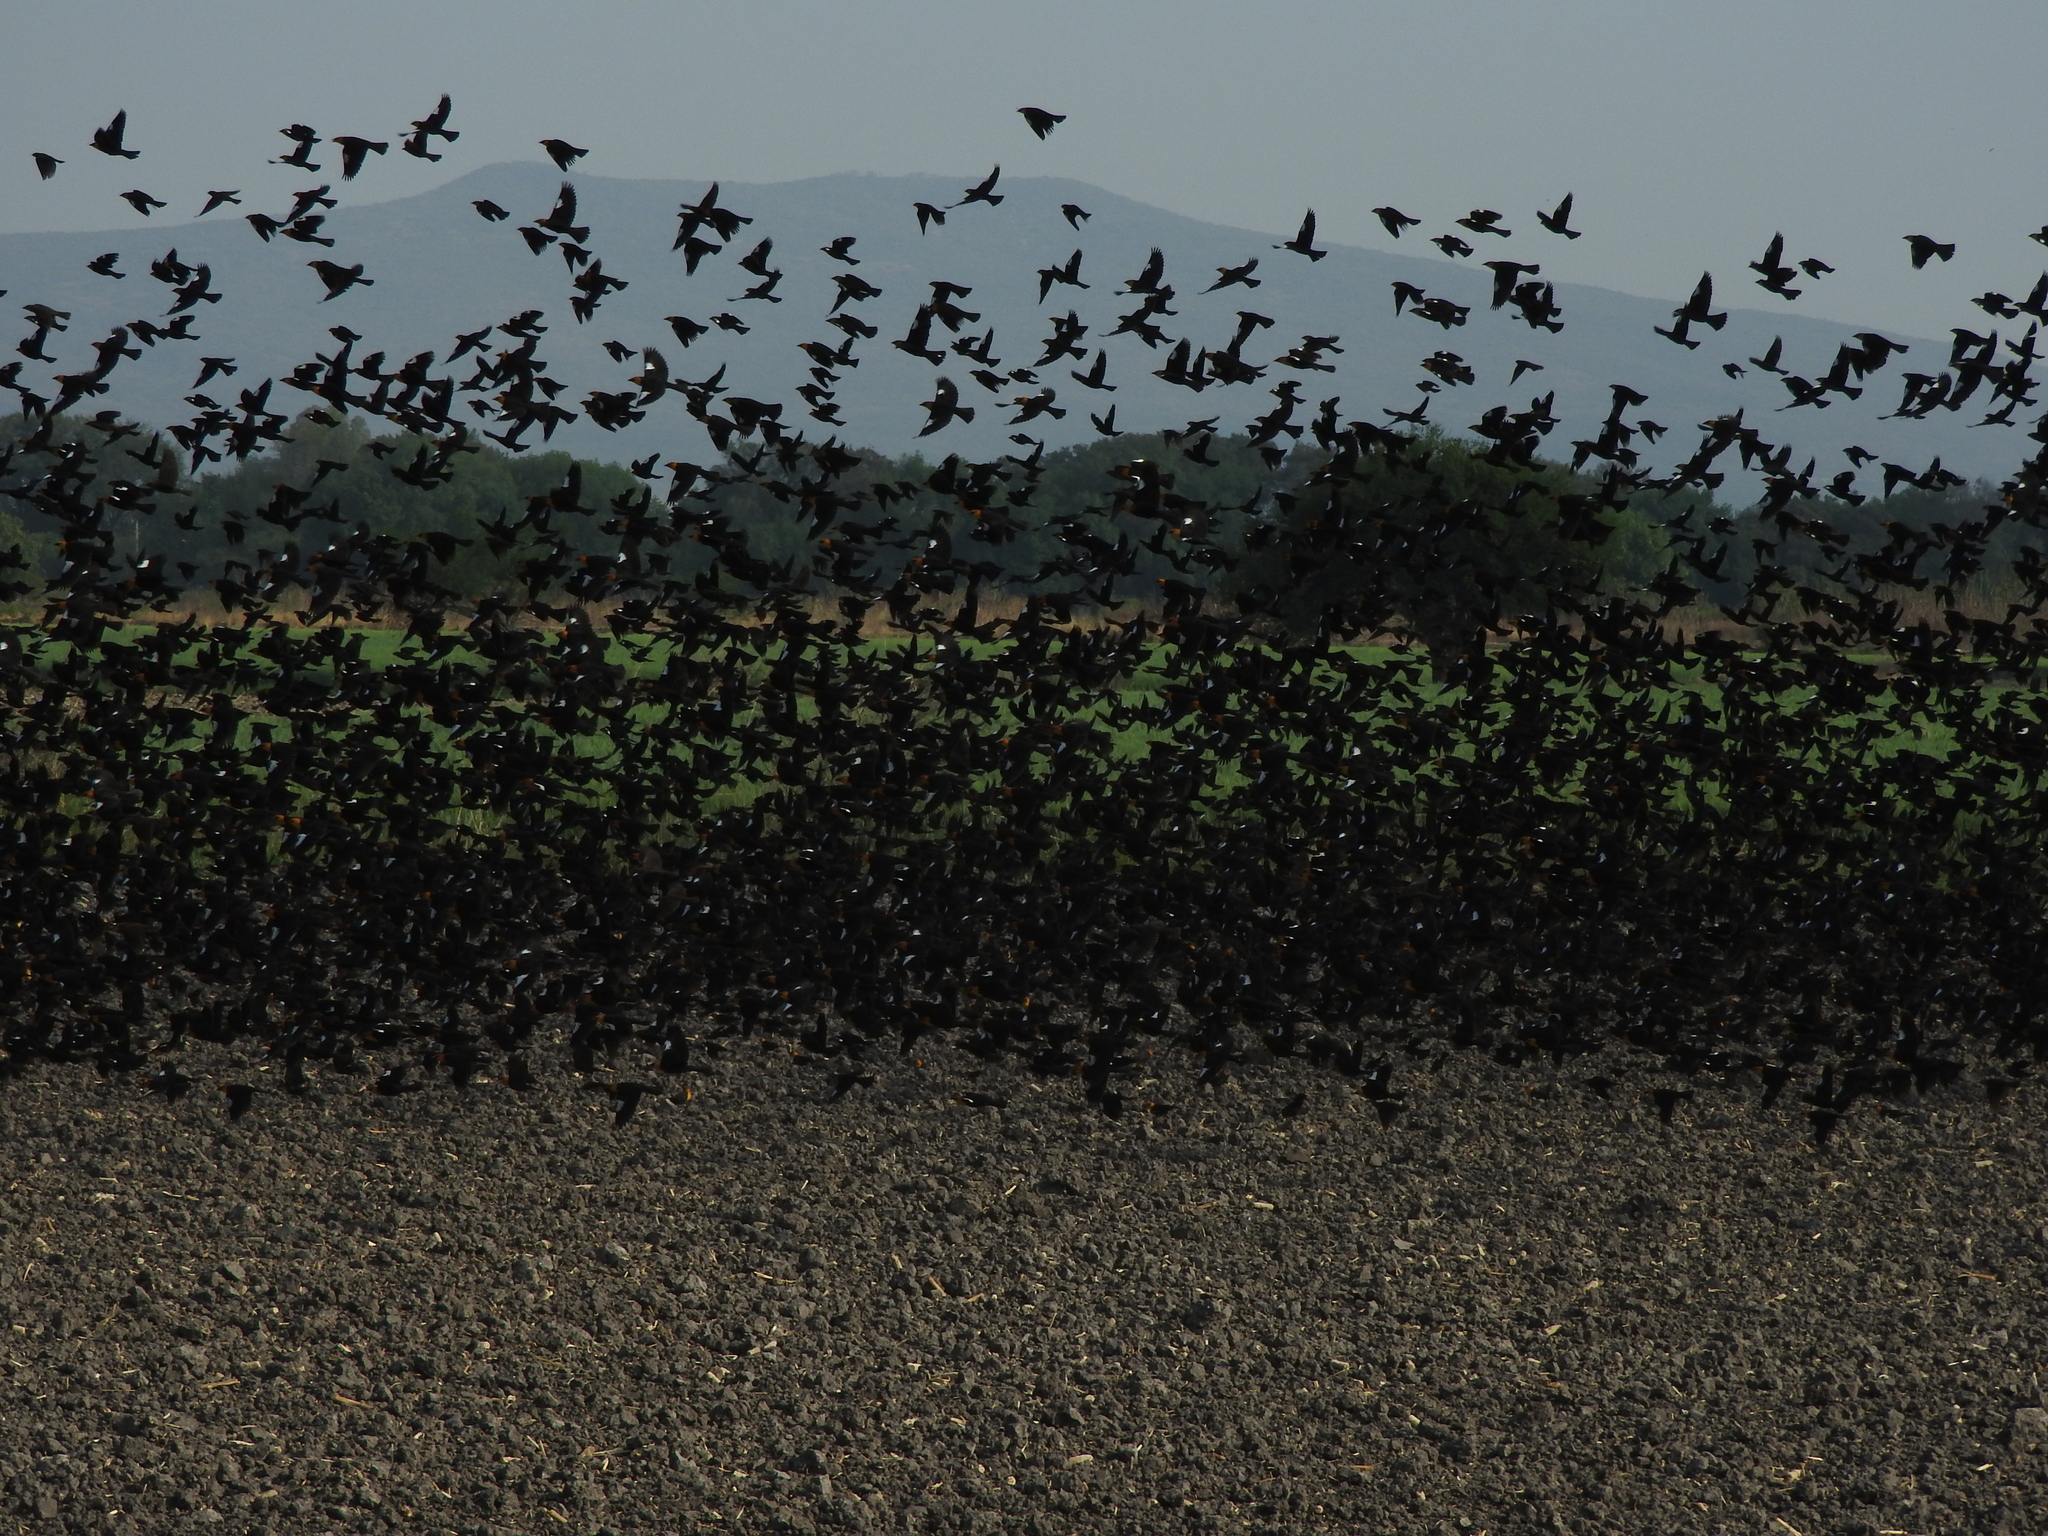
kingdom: Animalia
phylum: Chordata
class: Aves
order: Passeriformes
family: Icteridae
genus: Xanthocephalus
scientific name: Xanthocephalus xanthocephalus
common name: Yellow-headed blackbird
